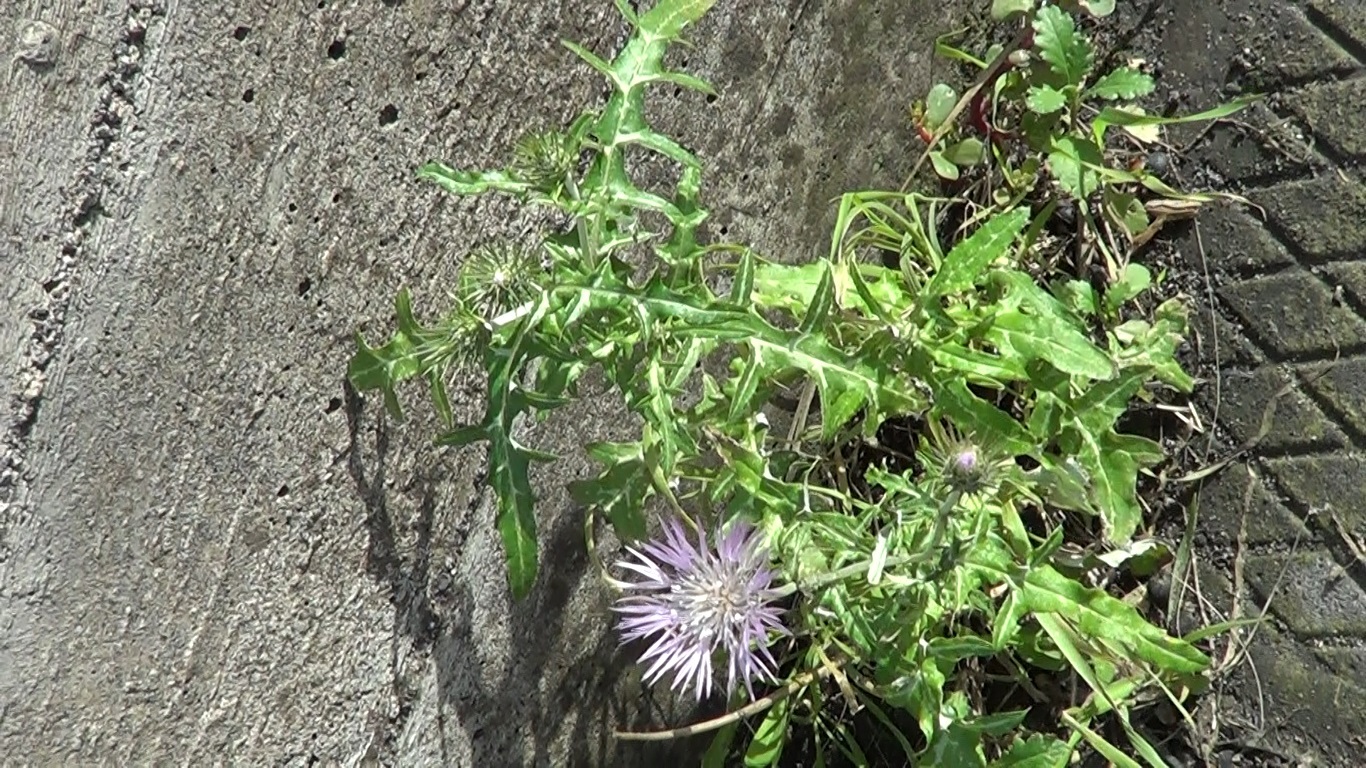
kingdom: Plantae
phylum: Tracheophyta
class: Magnoliopsida
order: Asterales
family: Asteraceae
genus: Galactites
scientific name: Galactites tomentosa
